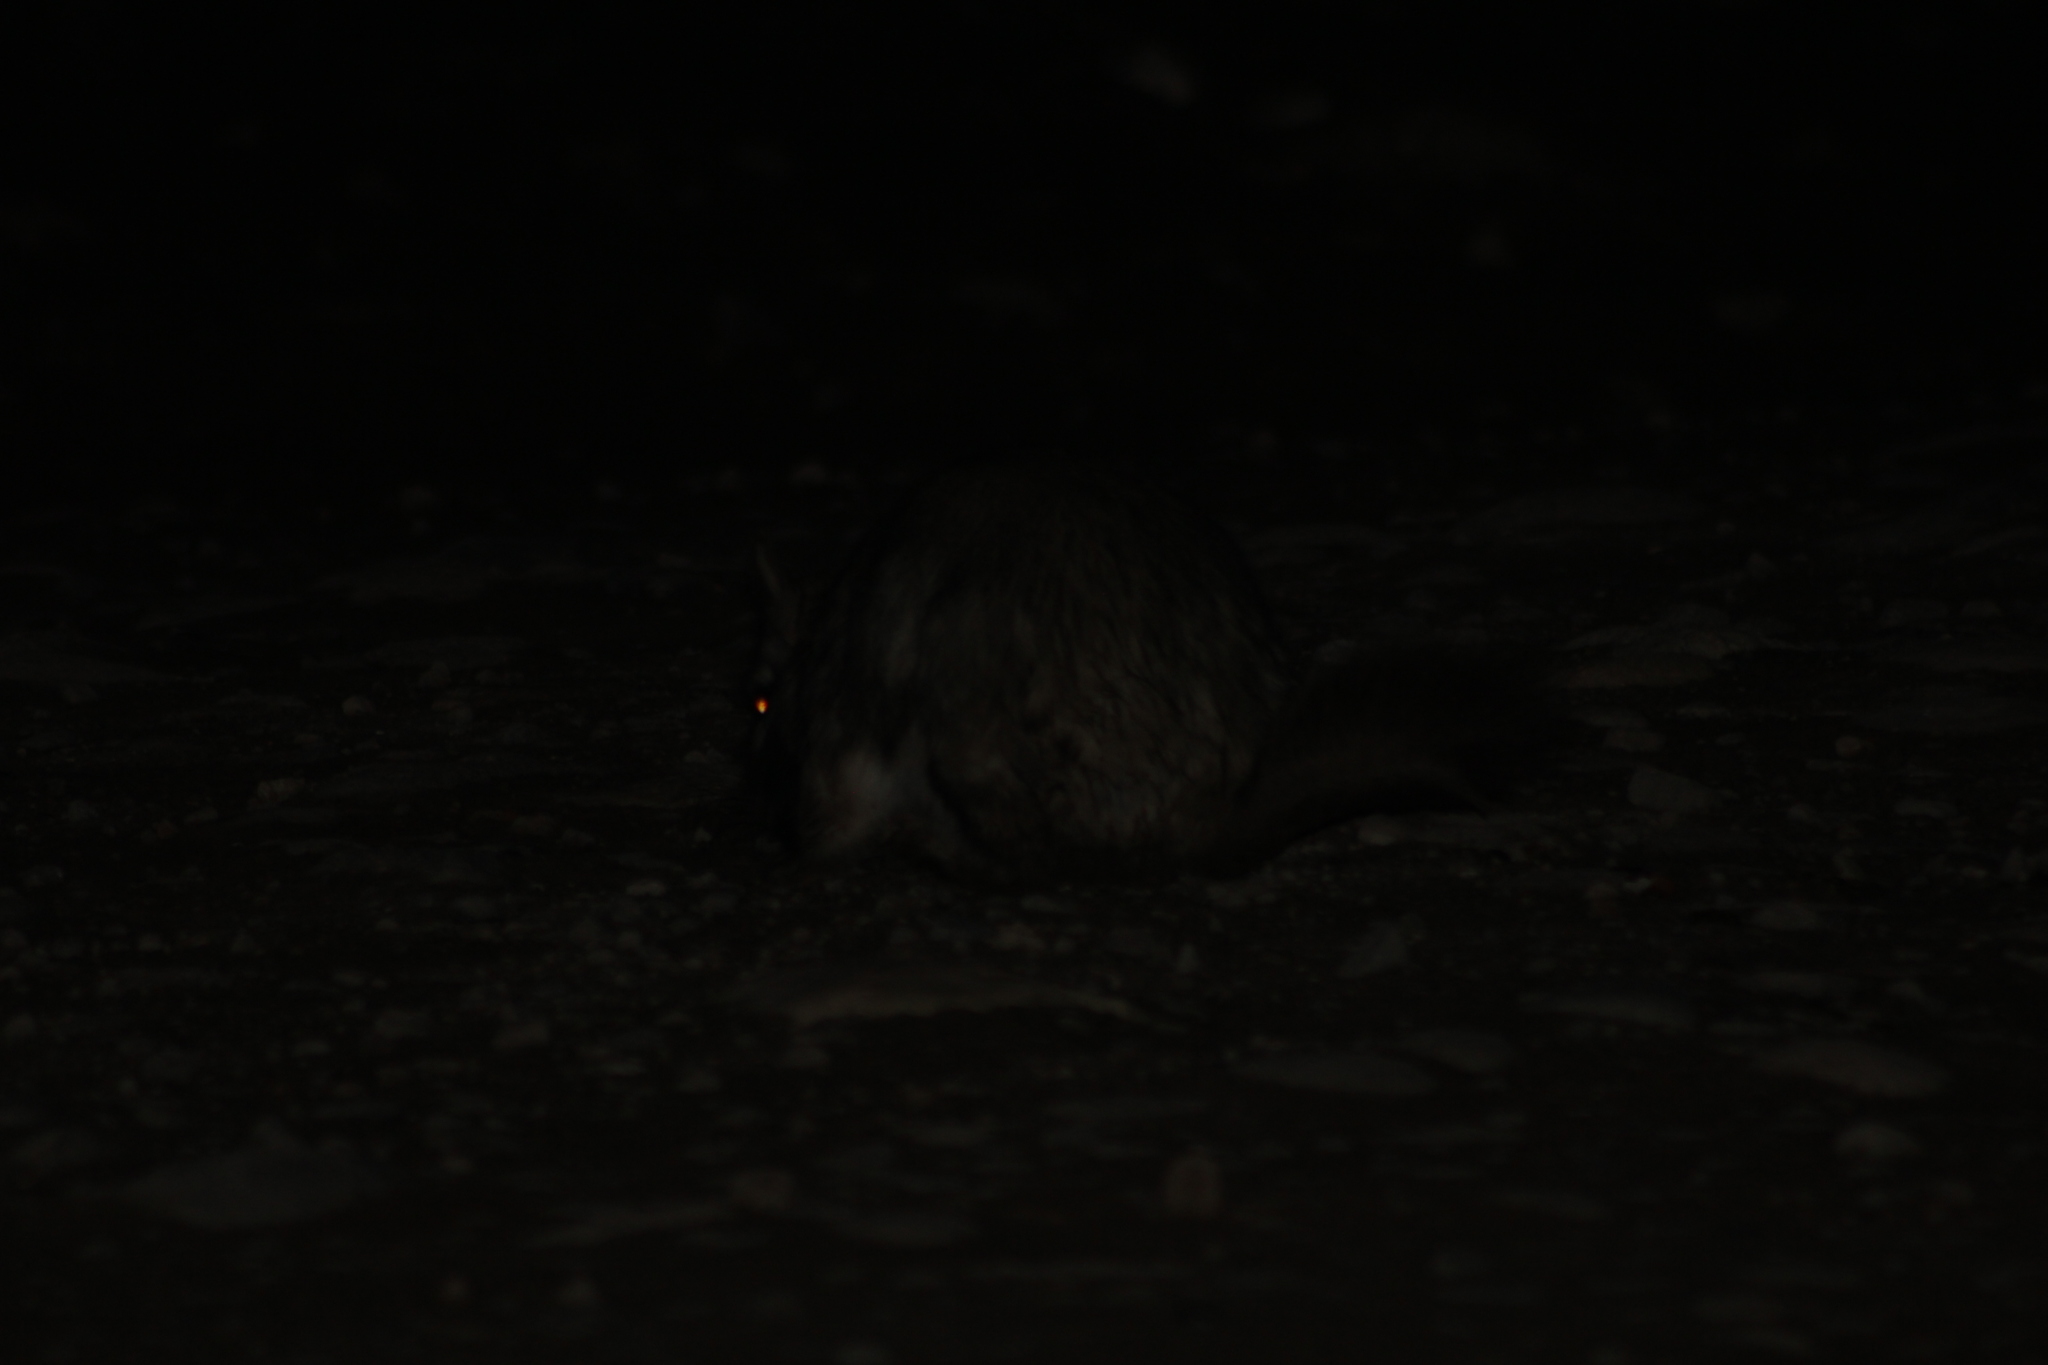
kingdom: Animalia
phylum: Chordata
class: Mammalia
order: Rodentia
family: Chinchillidae
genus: Lagostomus
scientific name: Lagostomus maximus
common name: Plains viscacha
